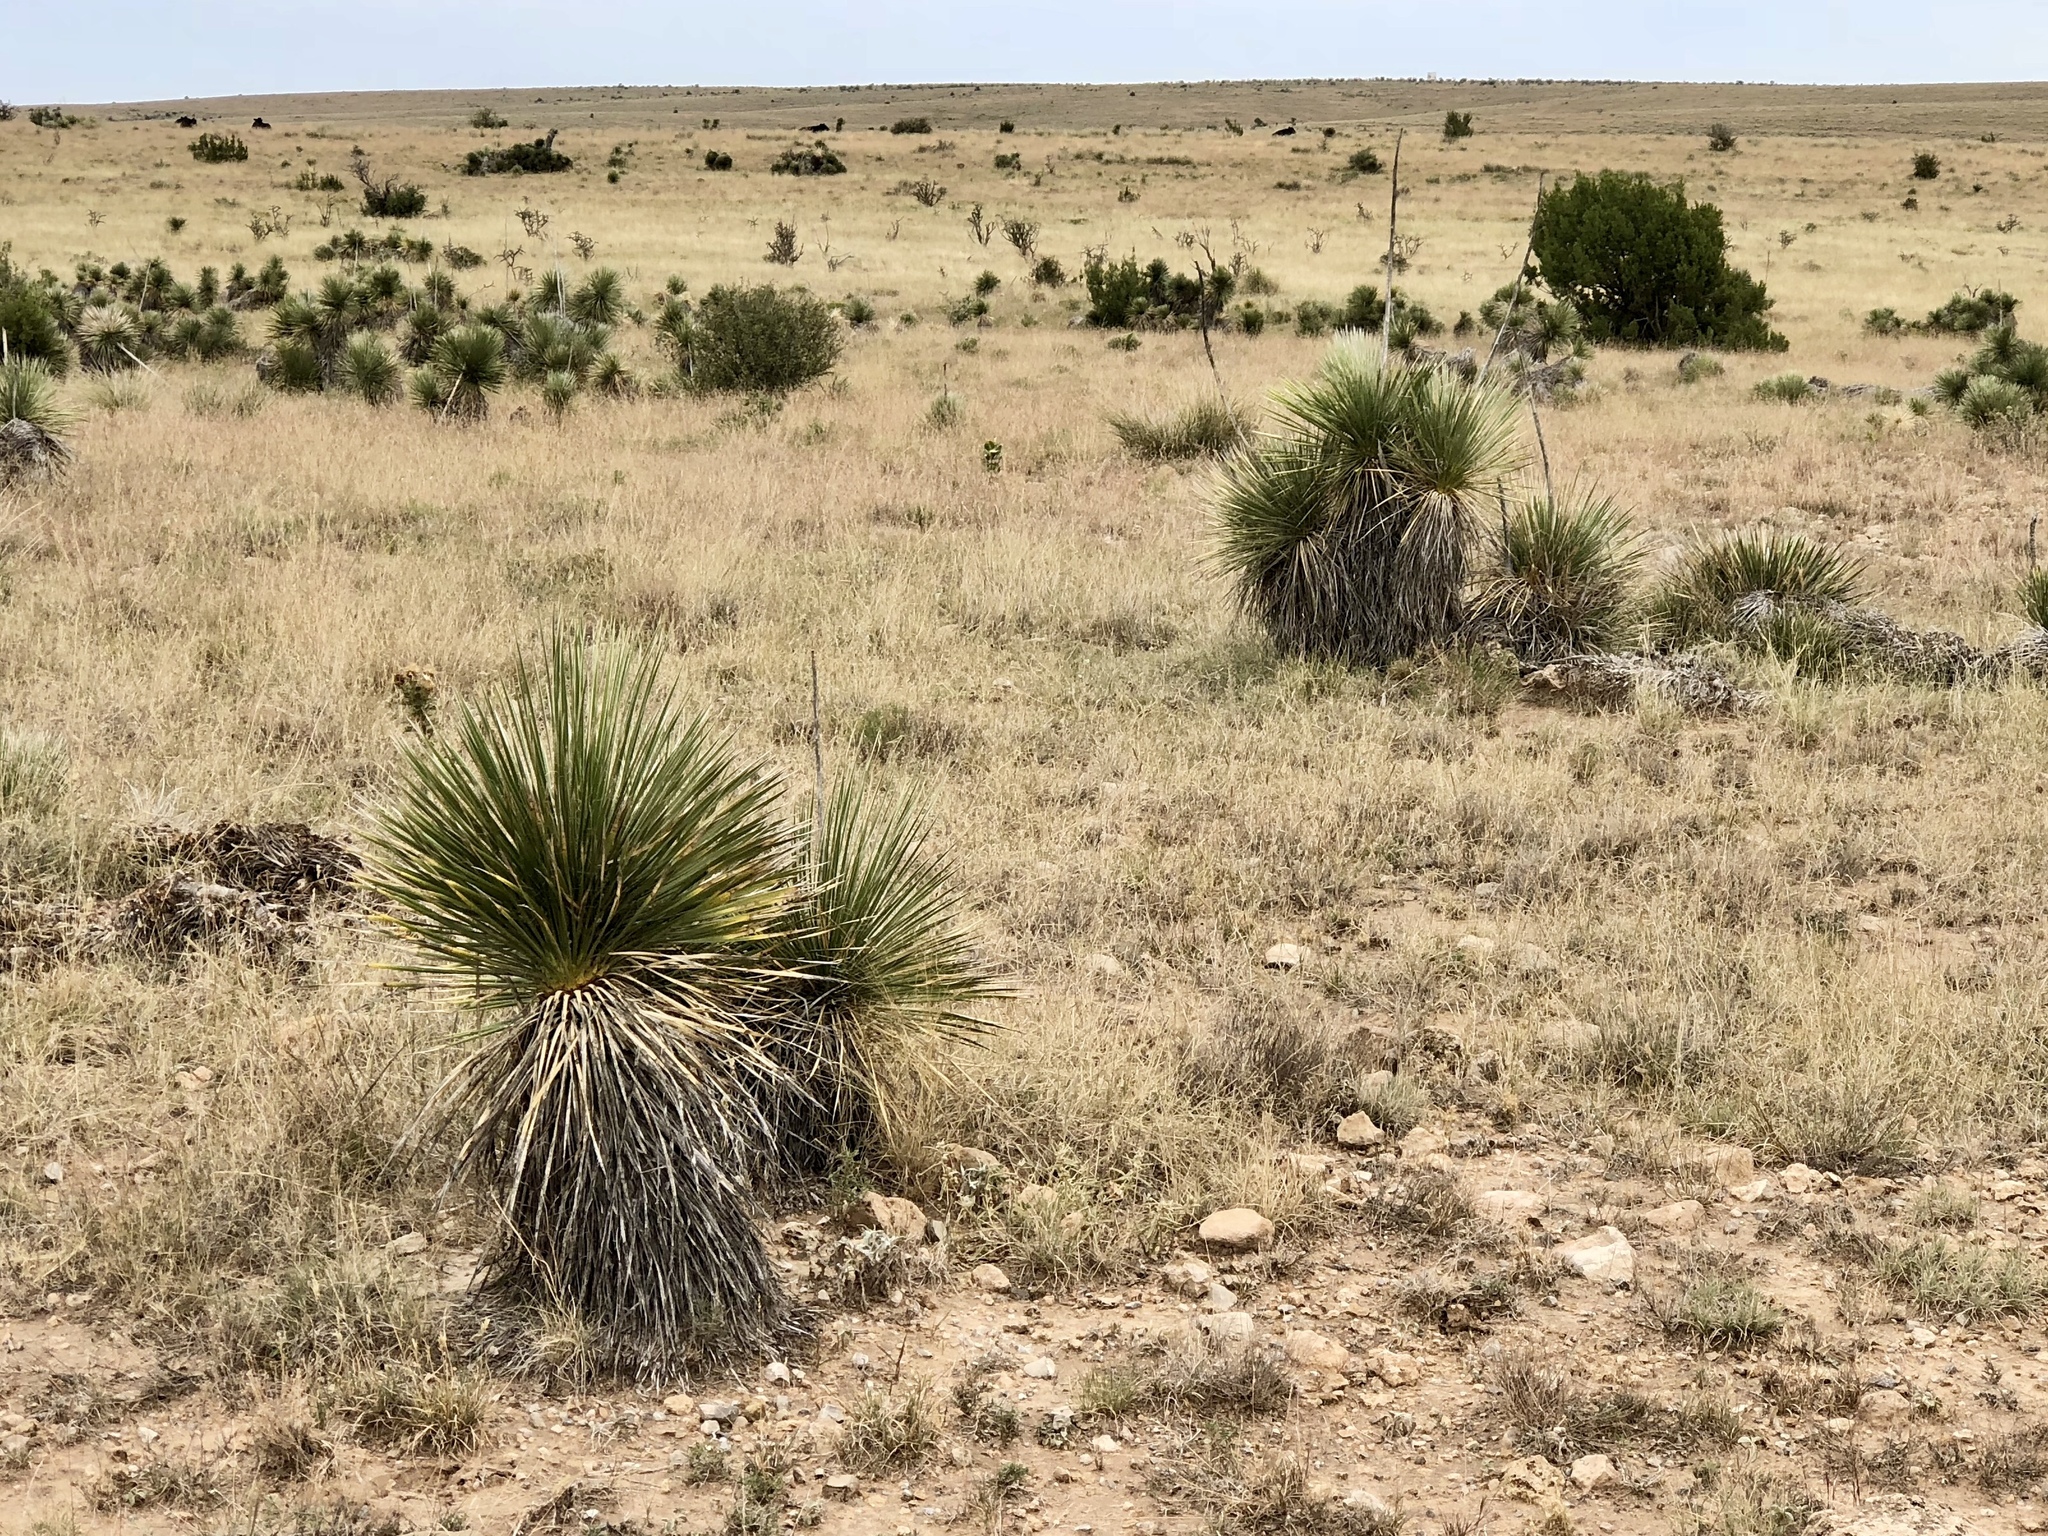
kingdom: Plantae
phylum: Tracheophyta
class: Liliopsida
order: Asparagales
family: Asparagaceae
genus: Yucca
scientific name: Yucca elata
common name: Palmella
